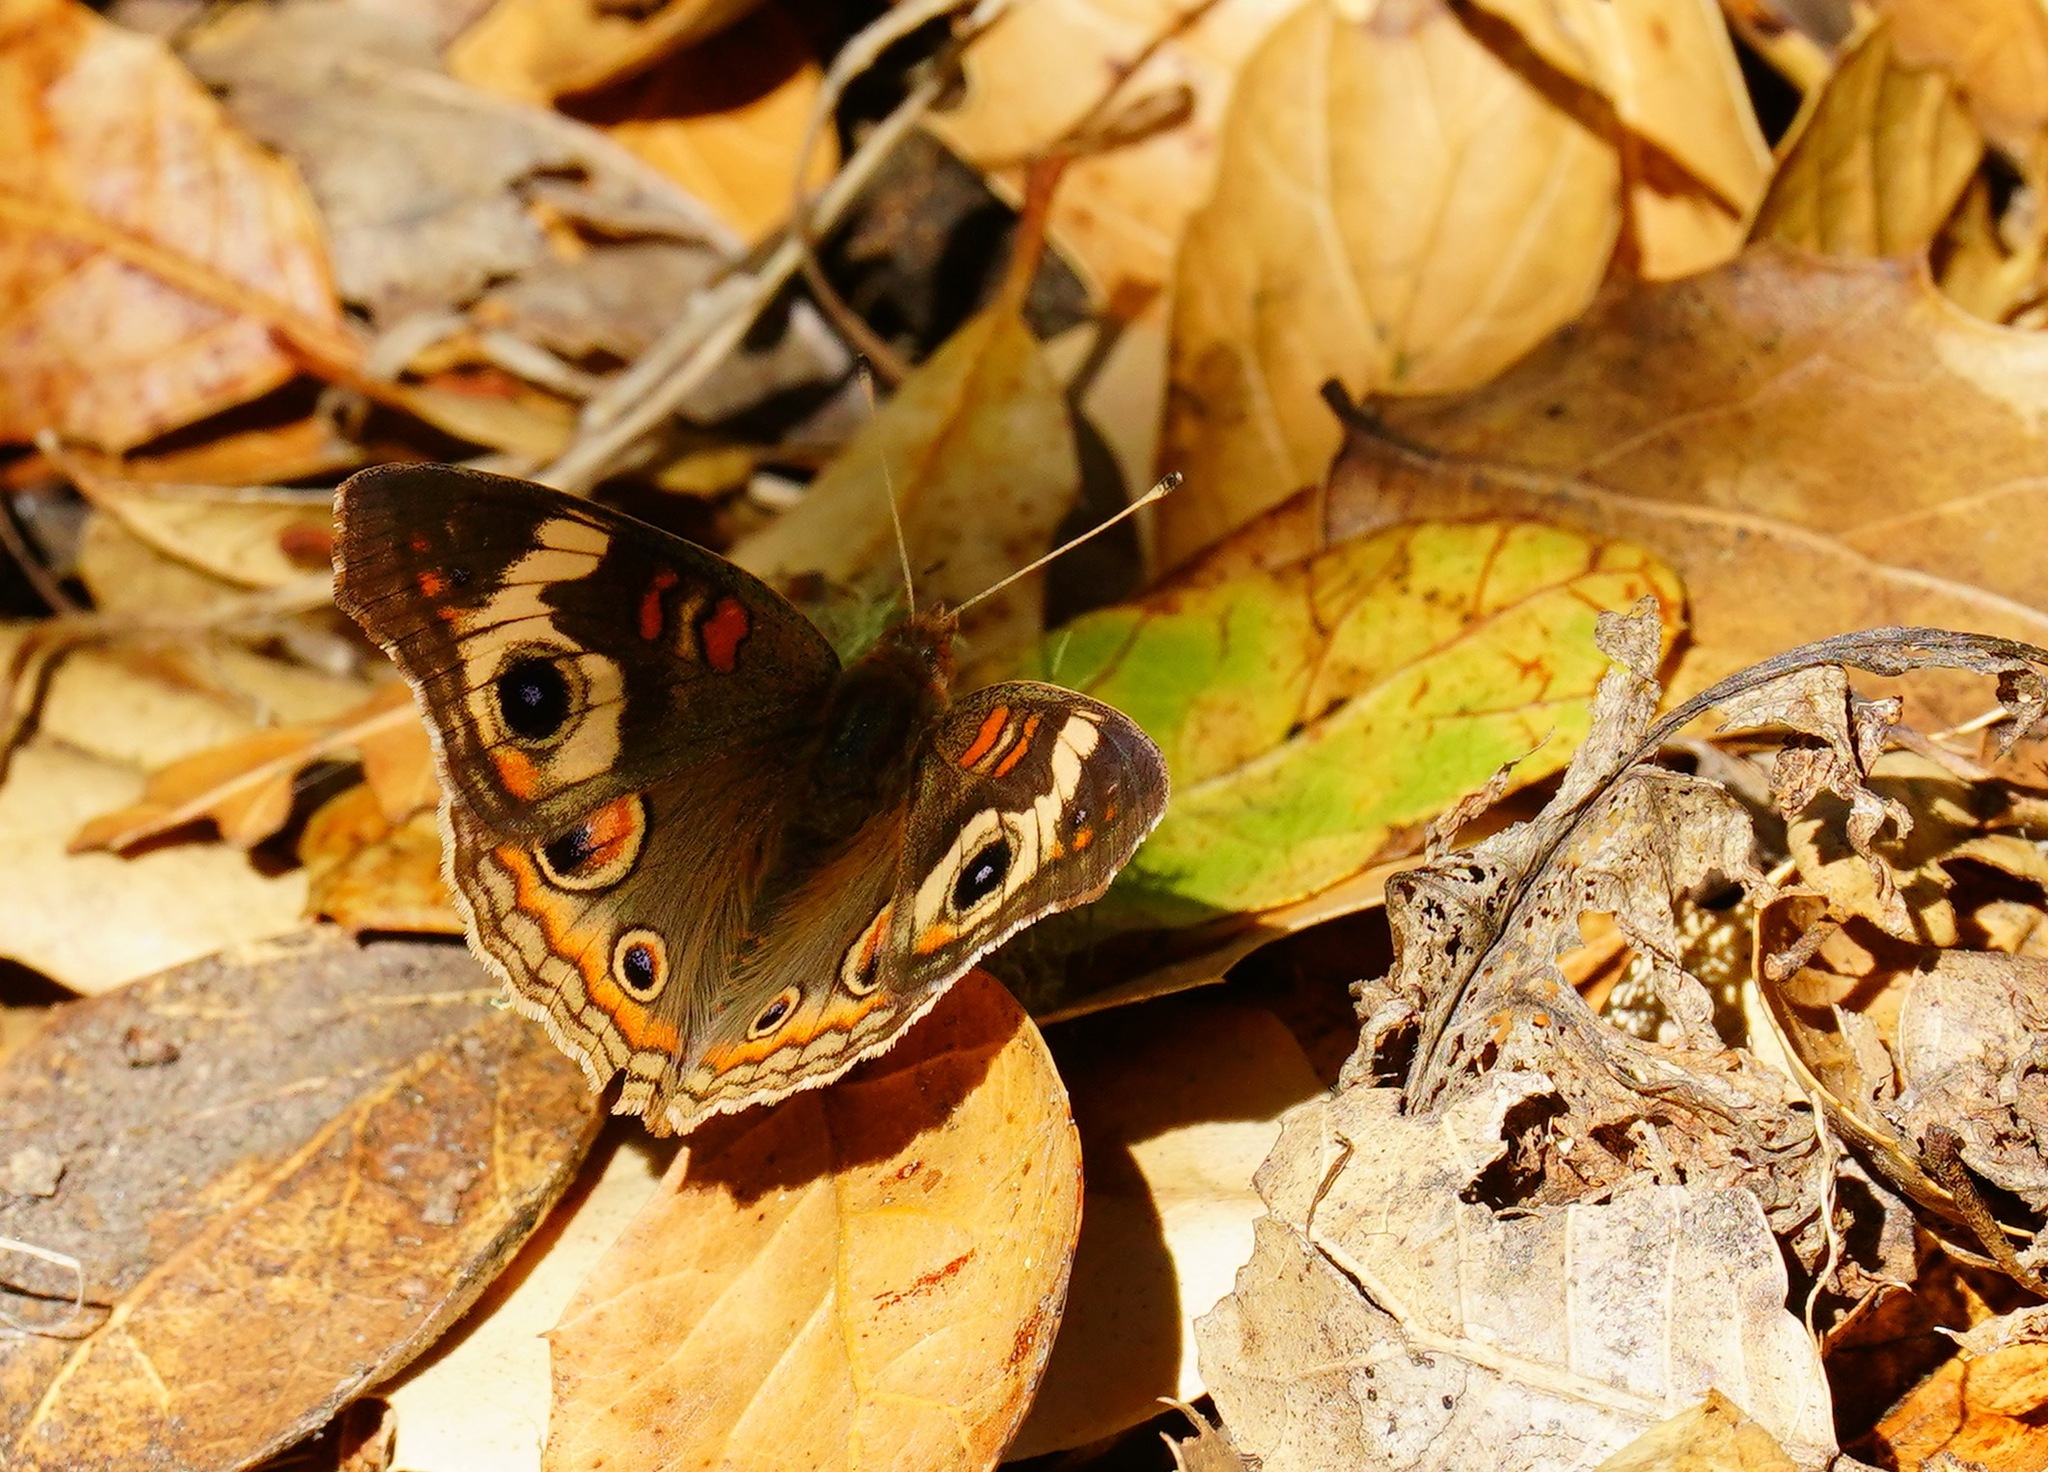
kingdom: Animalia
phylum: Arthropoda
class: Insecta
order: Lepidoptera
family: Nymphalidae
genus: Junonia
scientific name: Junonia grisea
